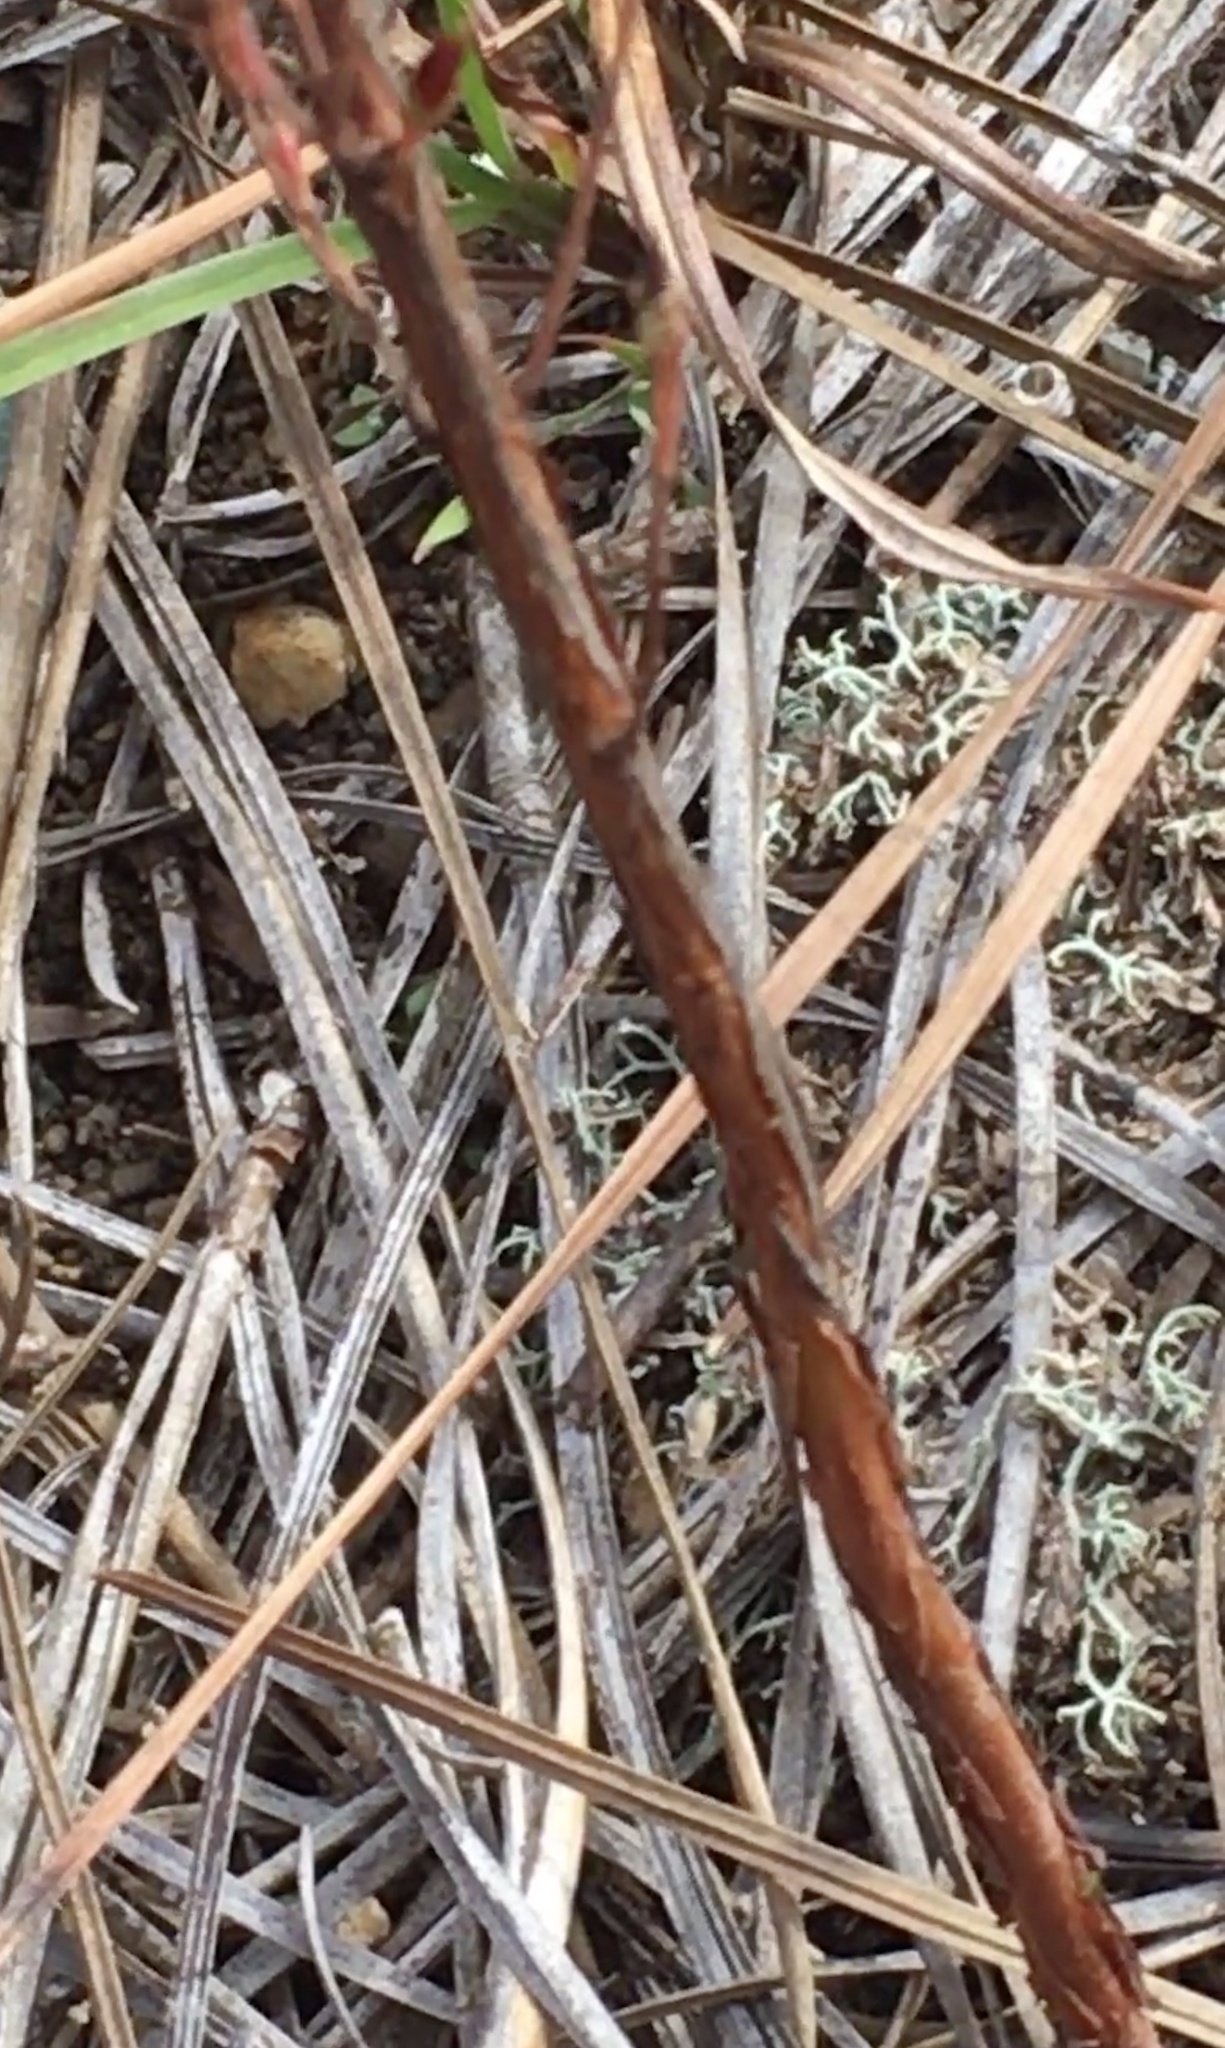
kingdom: Plantae
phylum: Tracheophyta
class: Magnoliopsida
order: Malpighiales
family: Hypericaceae
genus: Hypericum
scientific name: Hypericum gentianoides
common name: Gentian-leaved st. john's-wort
